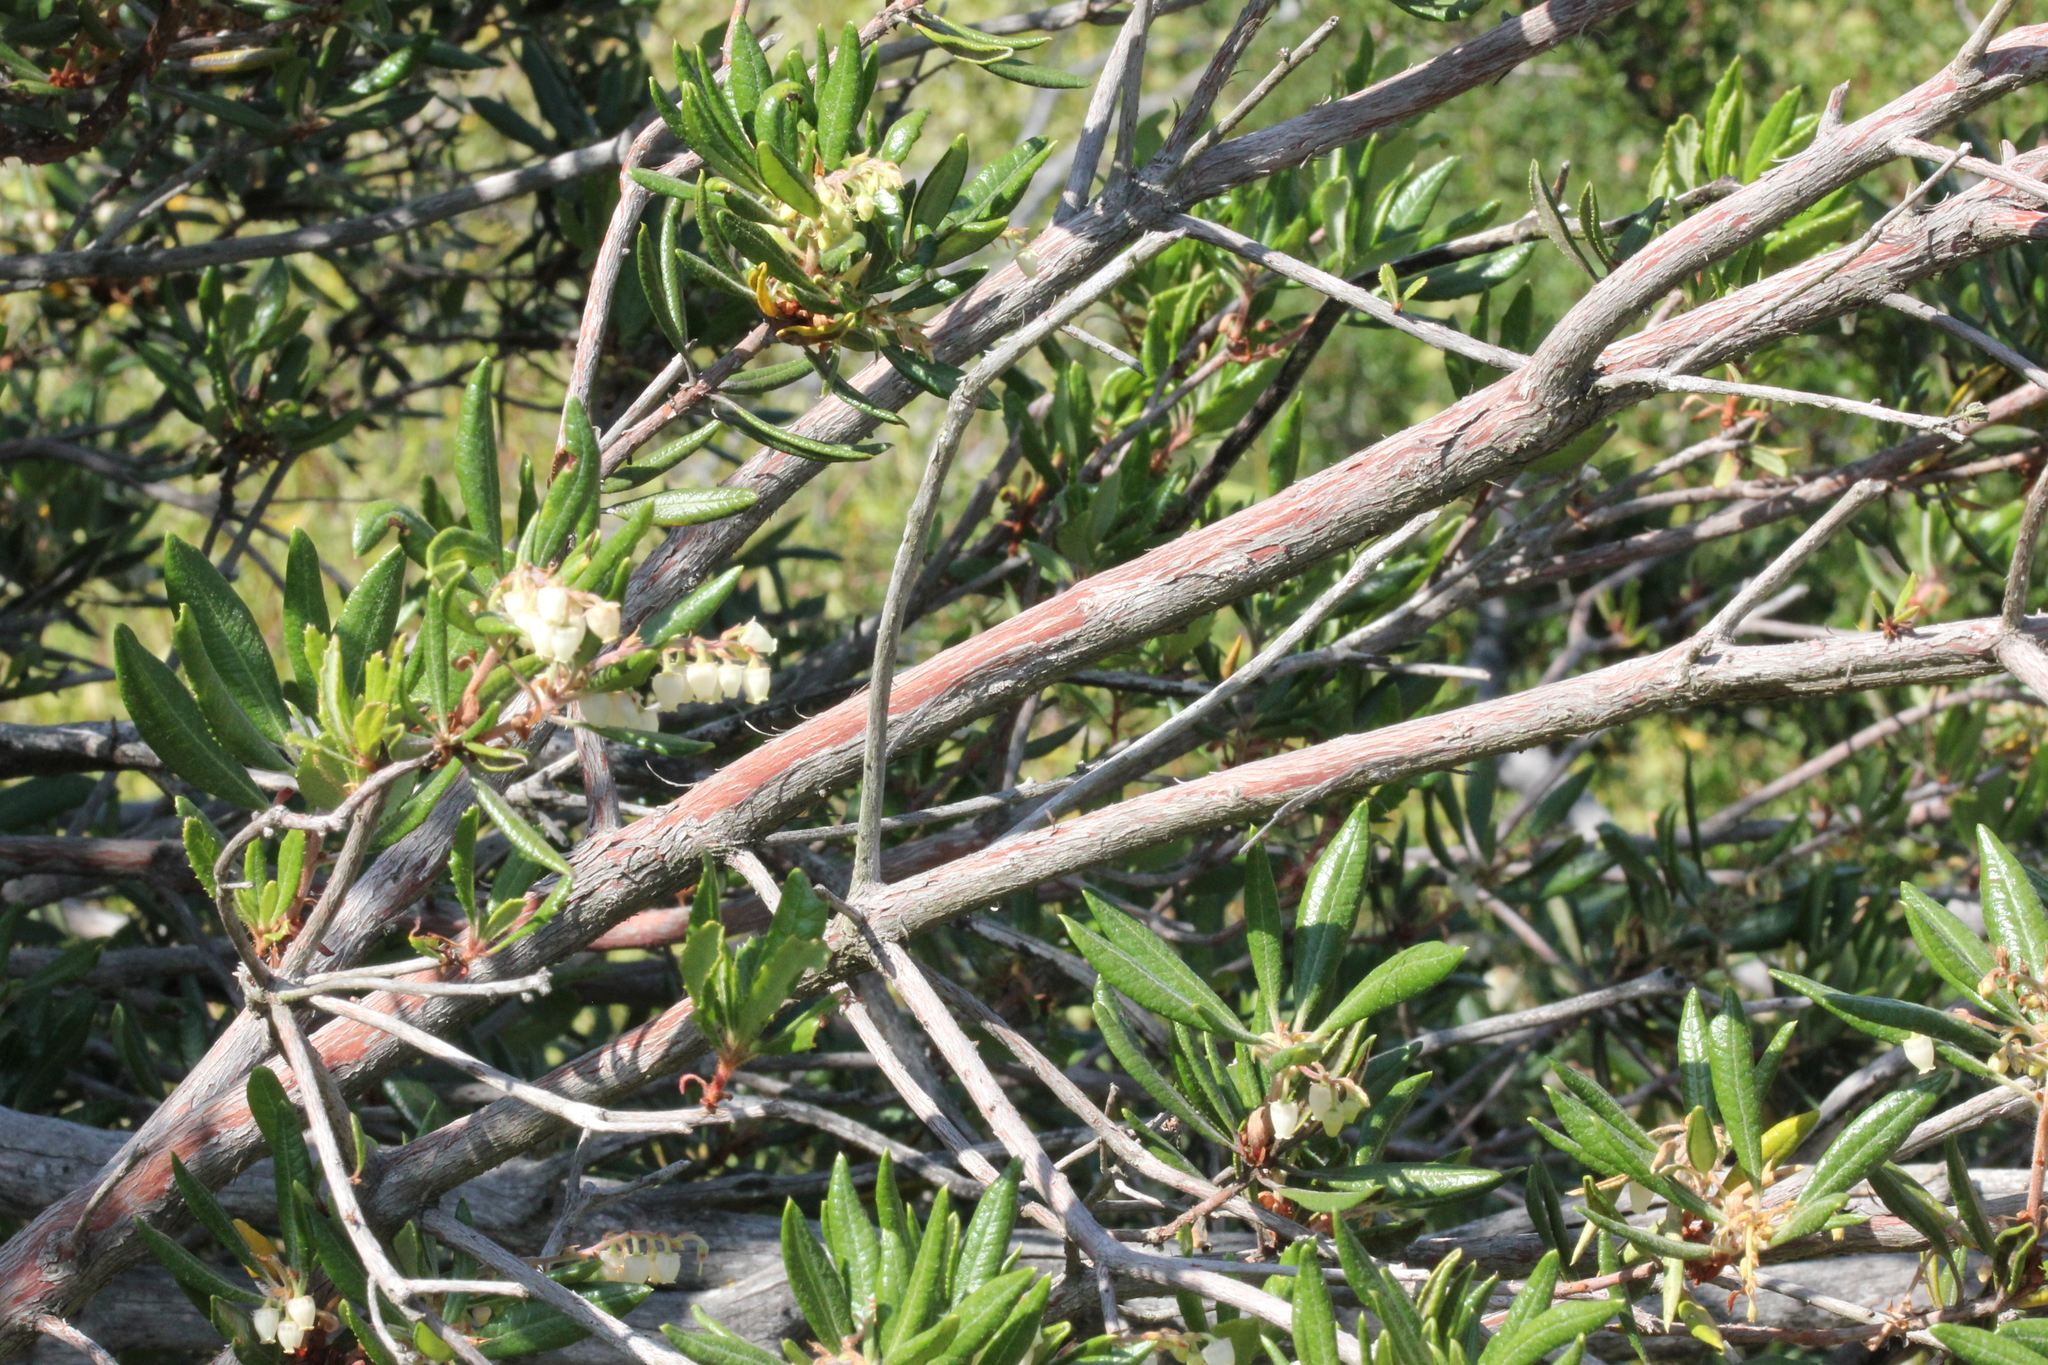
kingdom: Plantae
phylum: Tracheophyta
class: Magnoliopsida
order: Ericales
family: Ericaceae
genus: Comarostaphylis
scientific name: Comarostaphylis diversifolia
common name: Summer-holly
